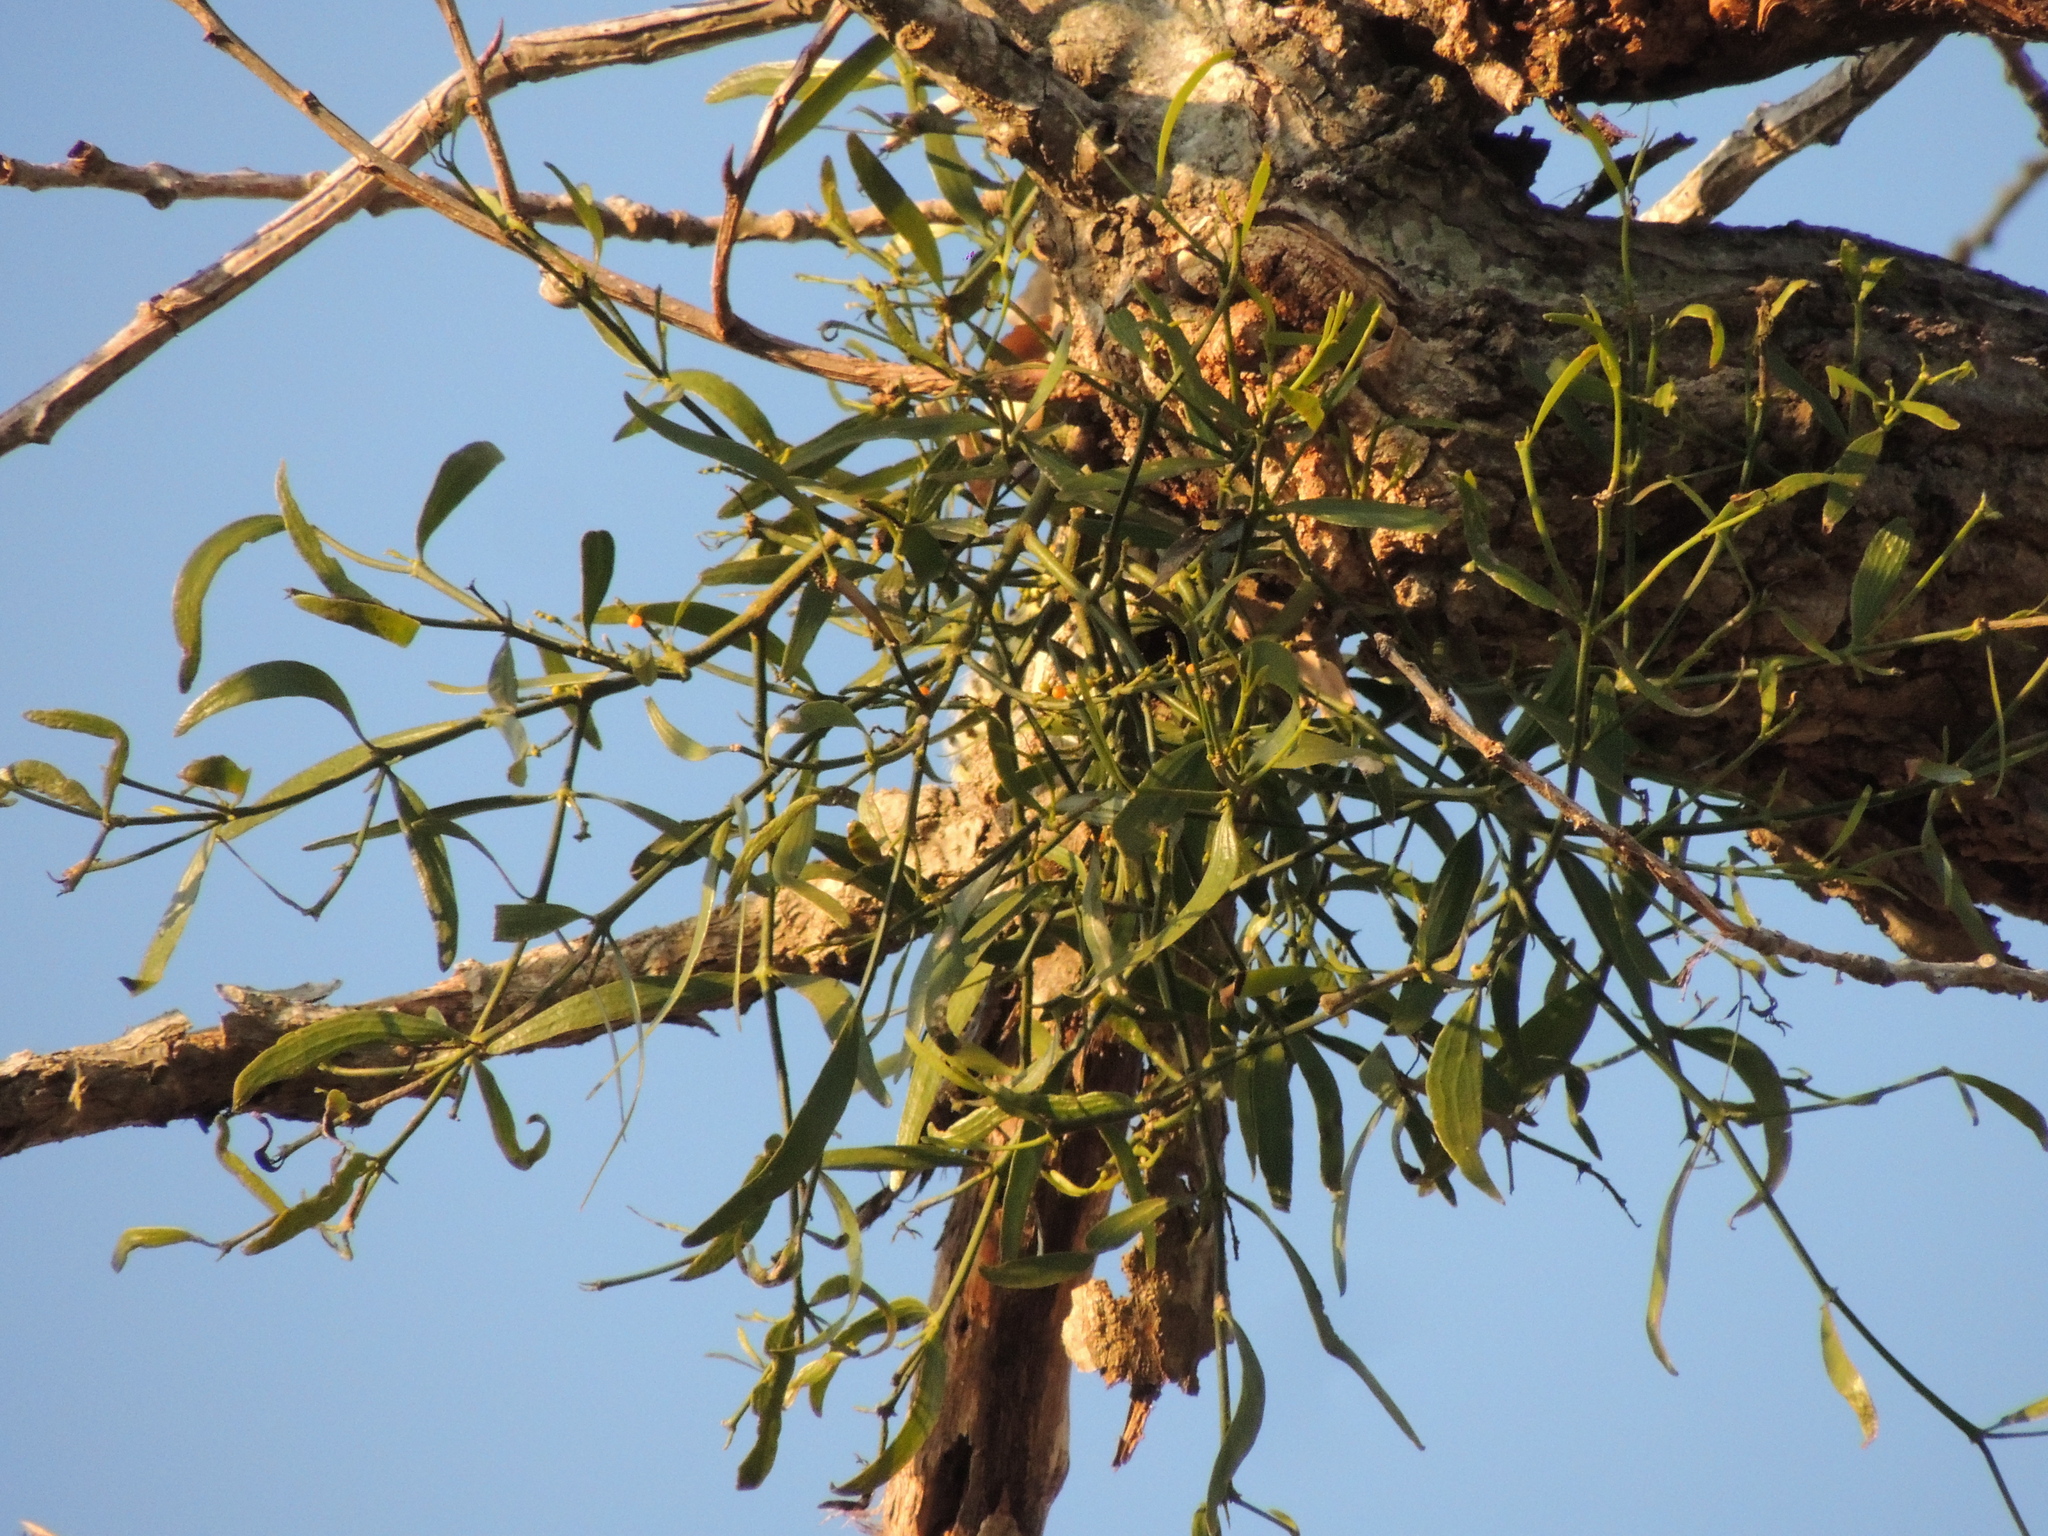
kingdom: Plantae
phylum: Tracheophyta
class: Magnoliopsida
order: Santalales
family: Viscaceae
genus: Phoradendron
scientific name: Phoradendron quadrangulare
